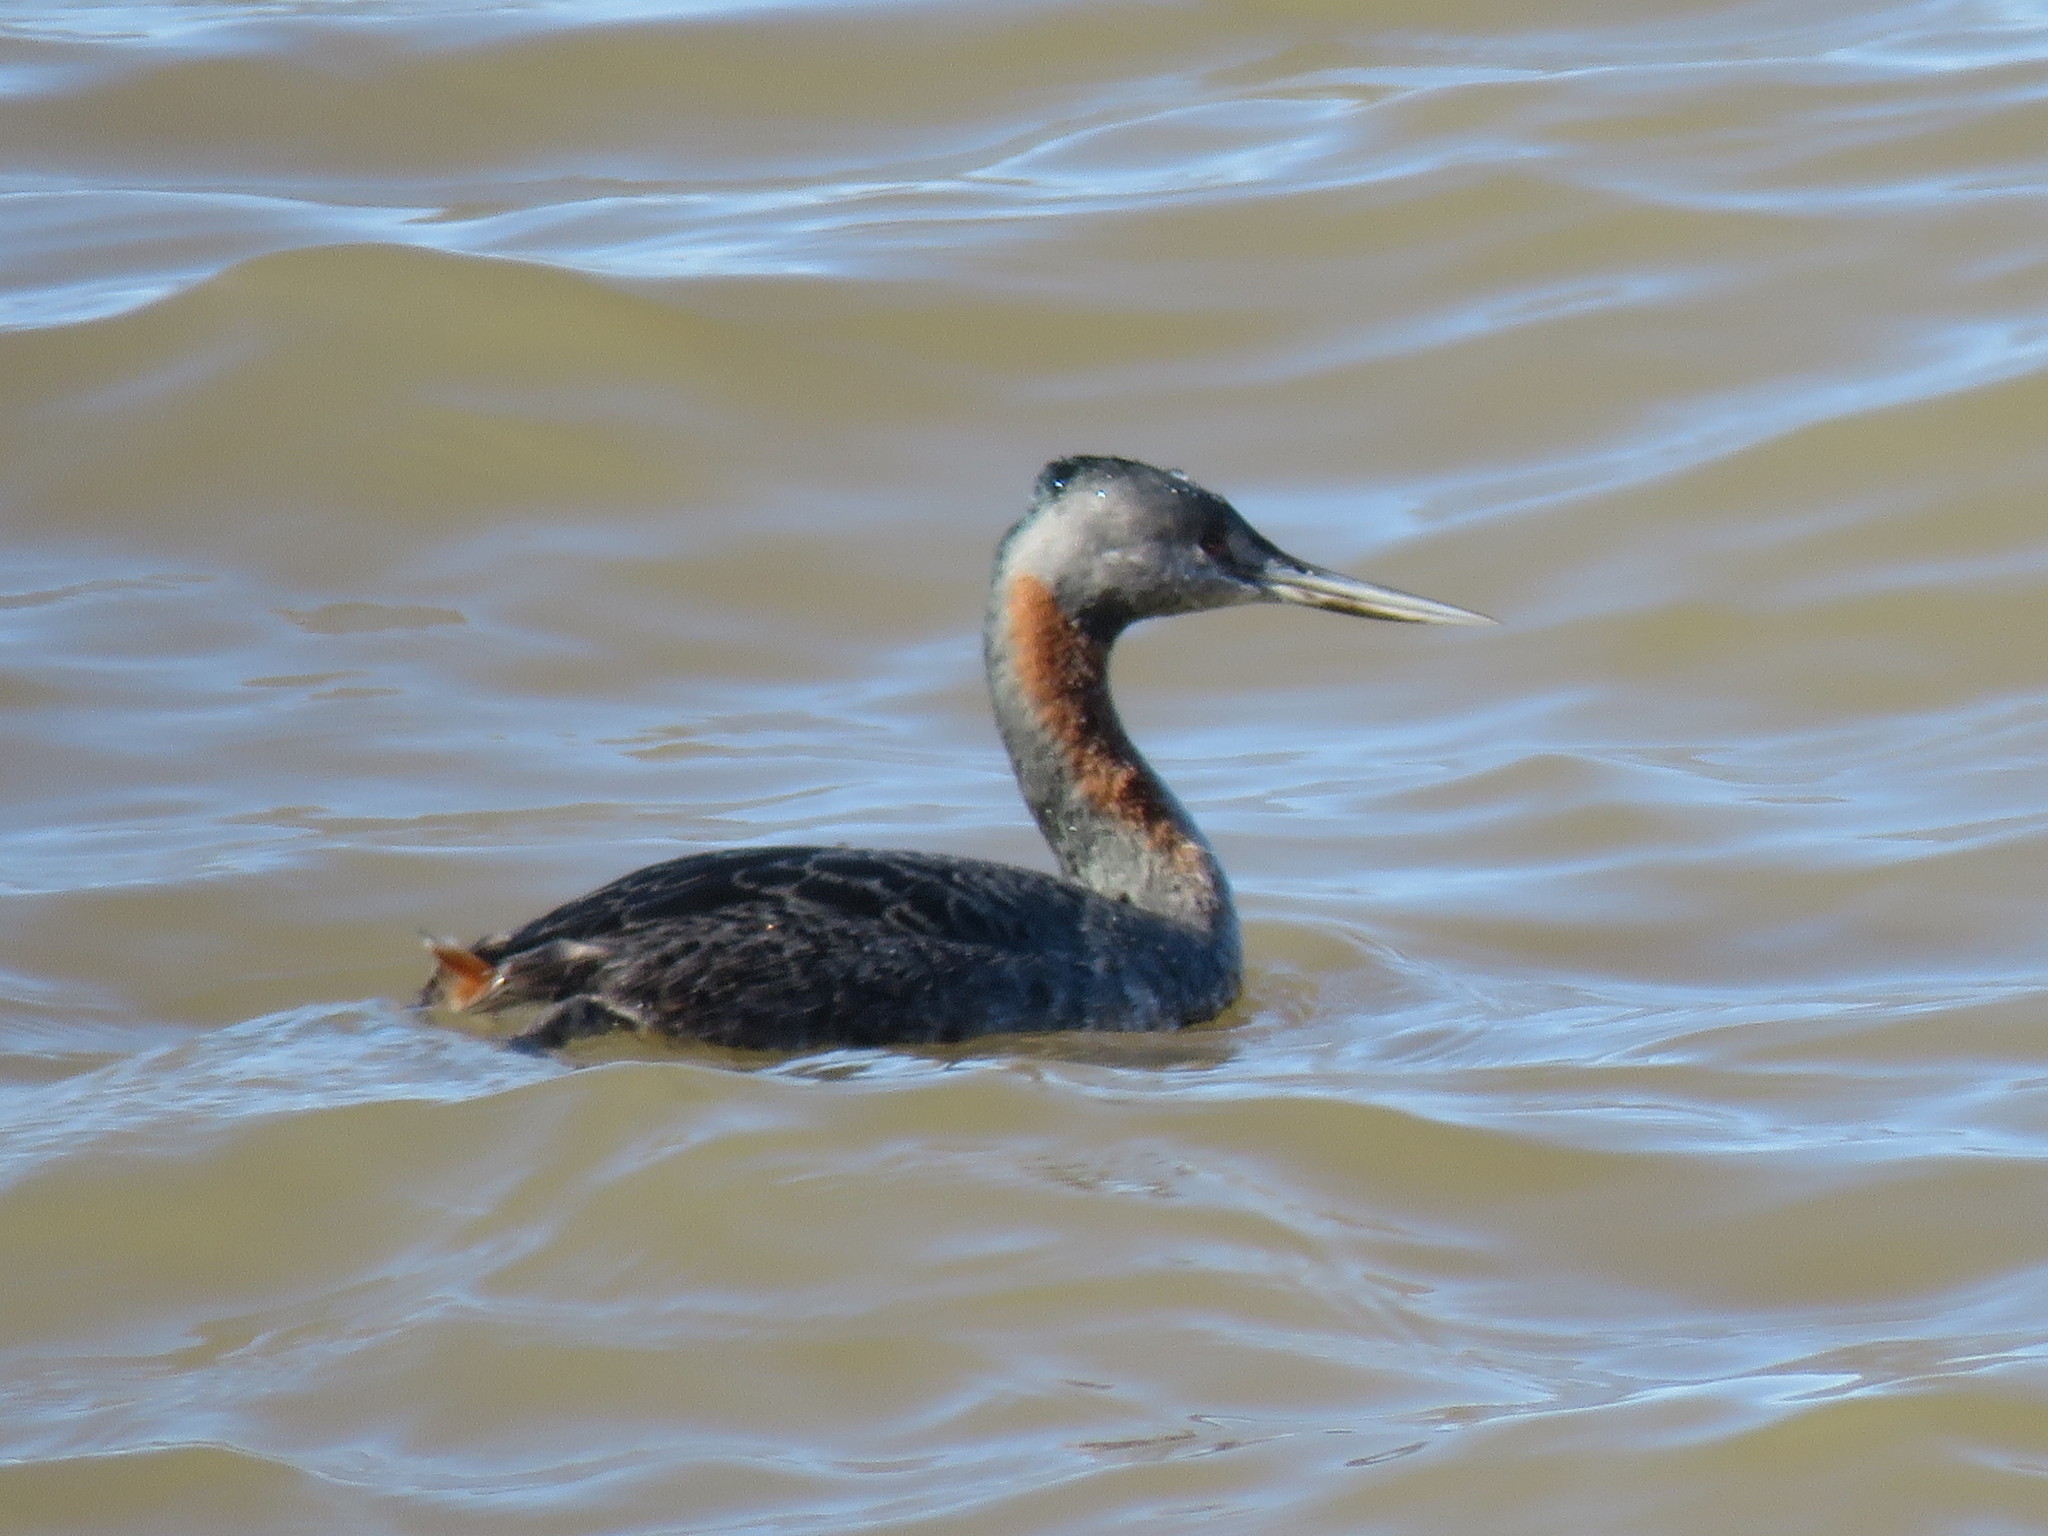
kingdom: Animalia
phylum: Chordata
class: Aves
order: Podicipediformes
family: Podicipedidae
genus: Podiceps
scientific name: Podiceps major
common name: Great grebe
